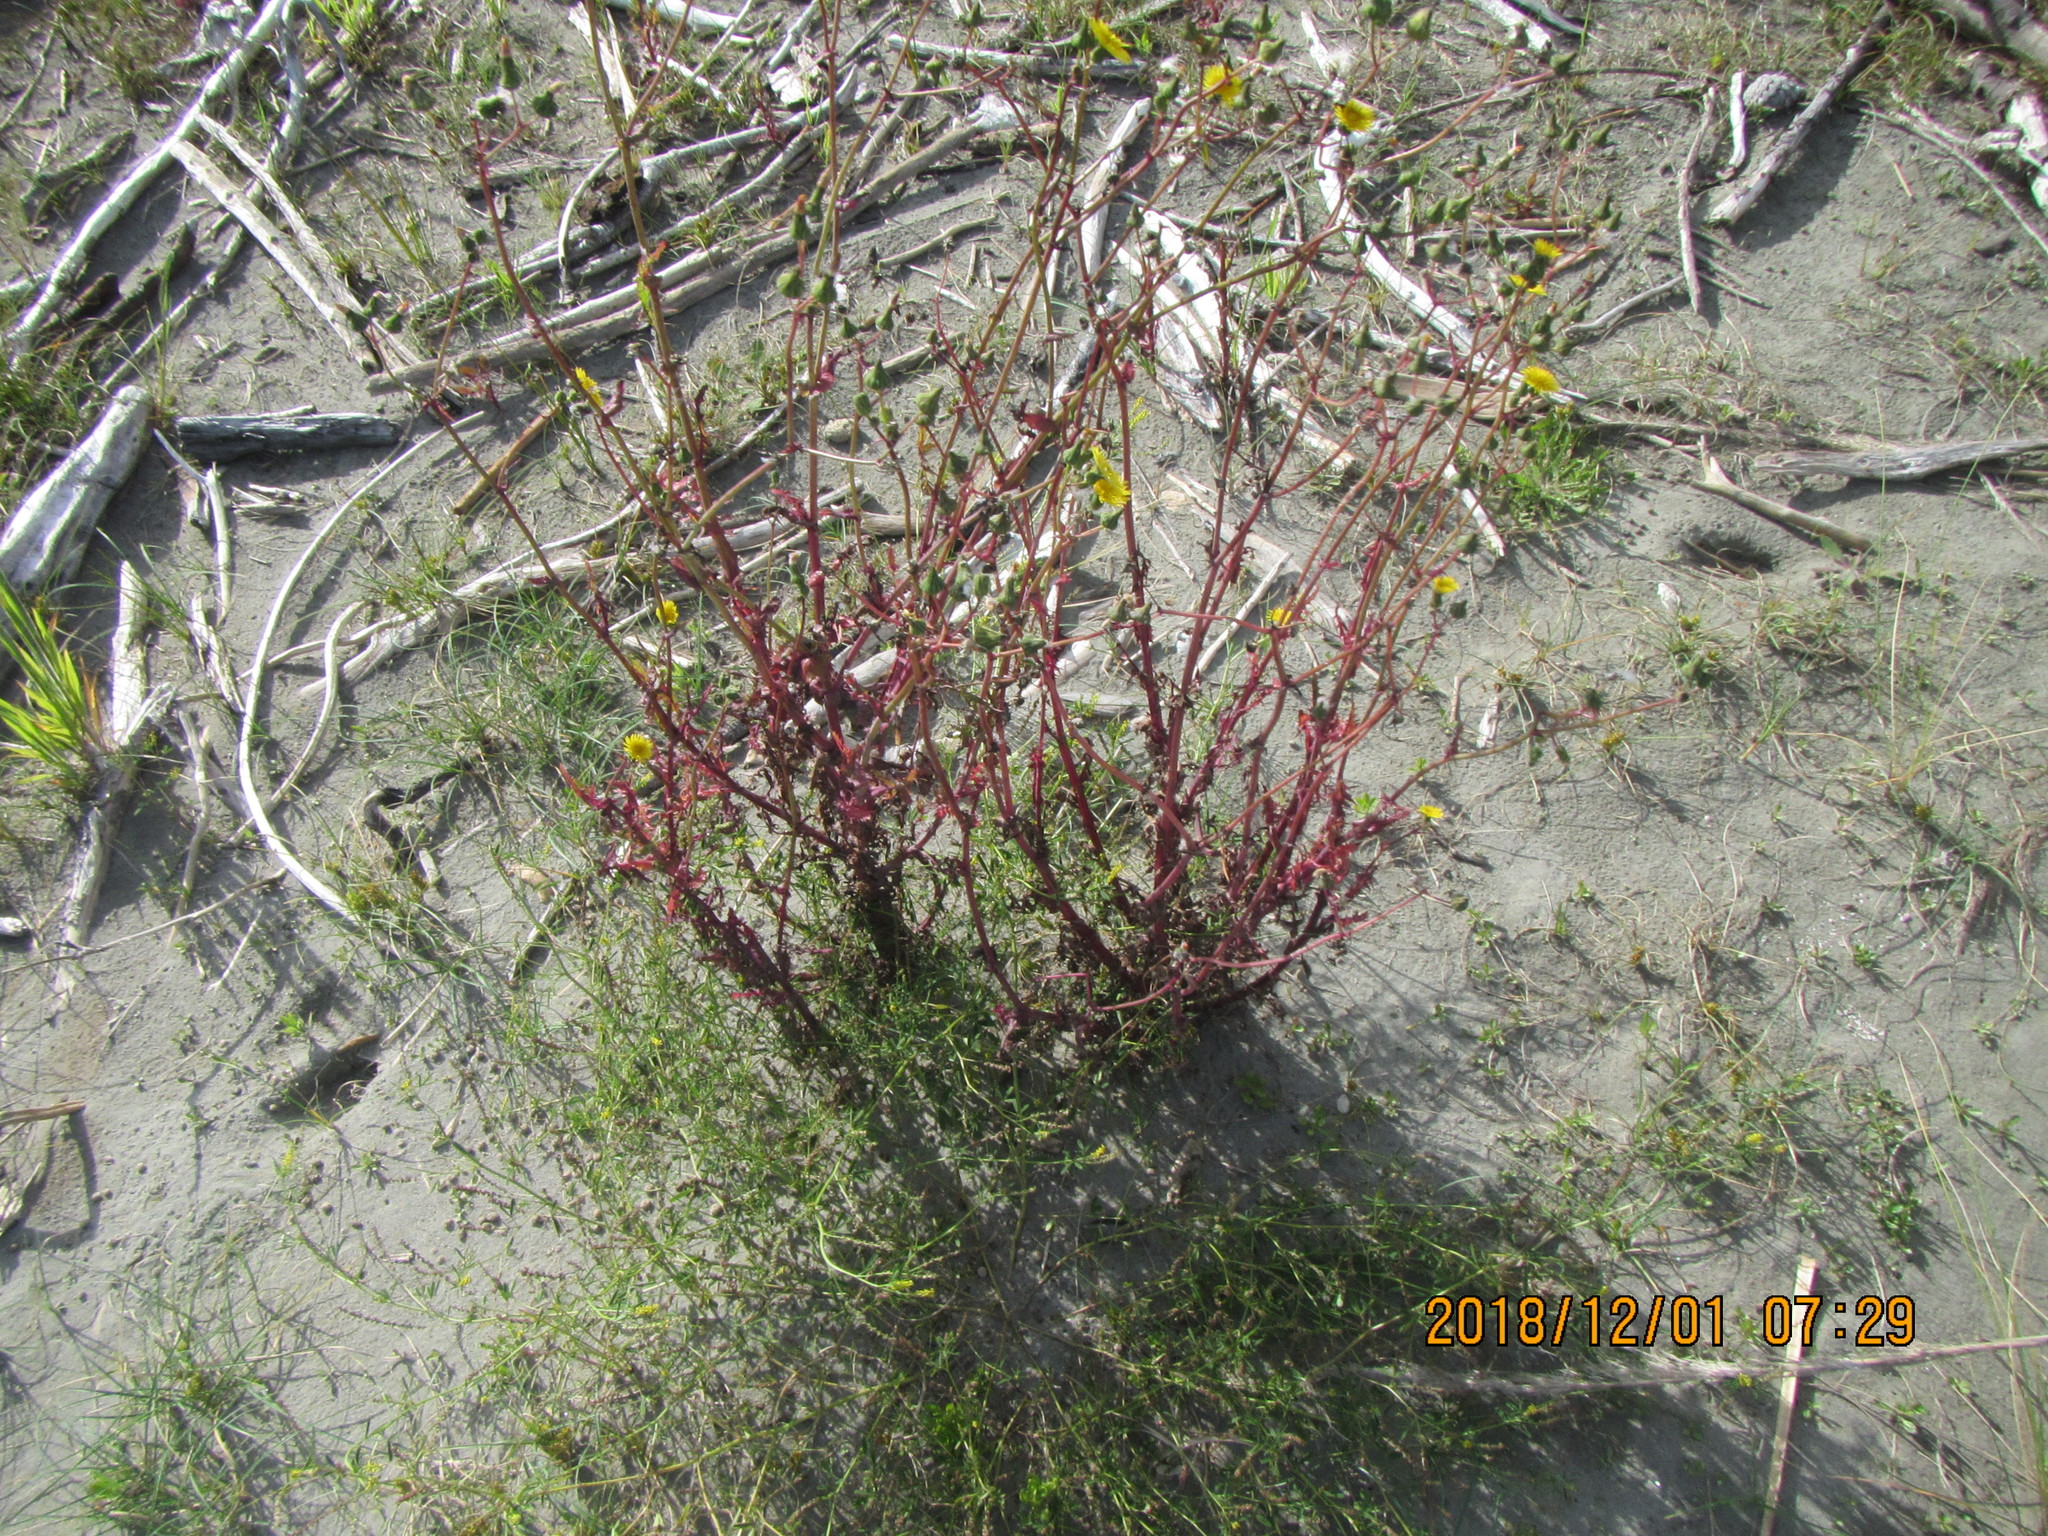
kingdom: Plantae
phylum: Tracheophyta
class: Magnoliopsida
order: Asterales
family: Asteraceae
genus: Sonchus
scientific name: Sonchus oleraceus
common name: Common sowthistle
